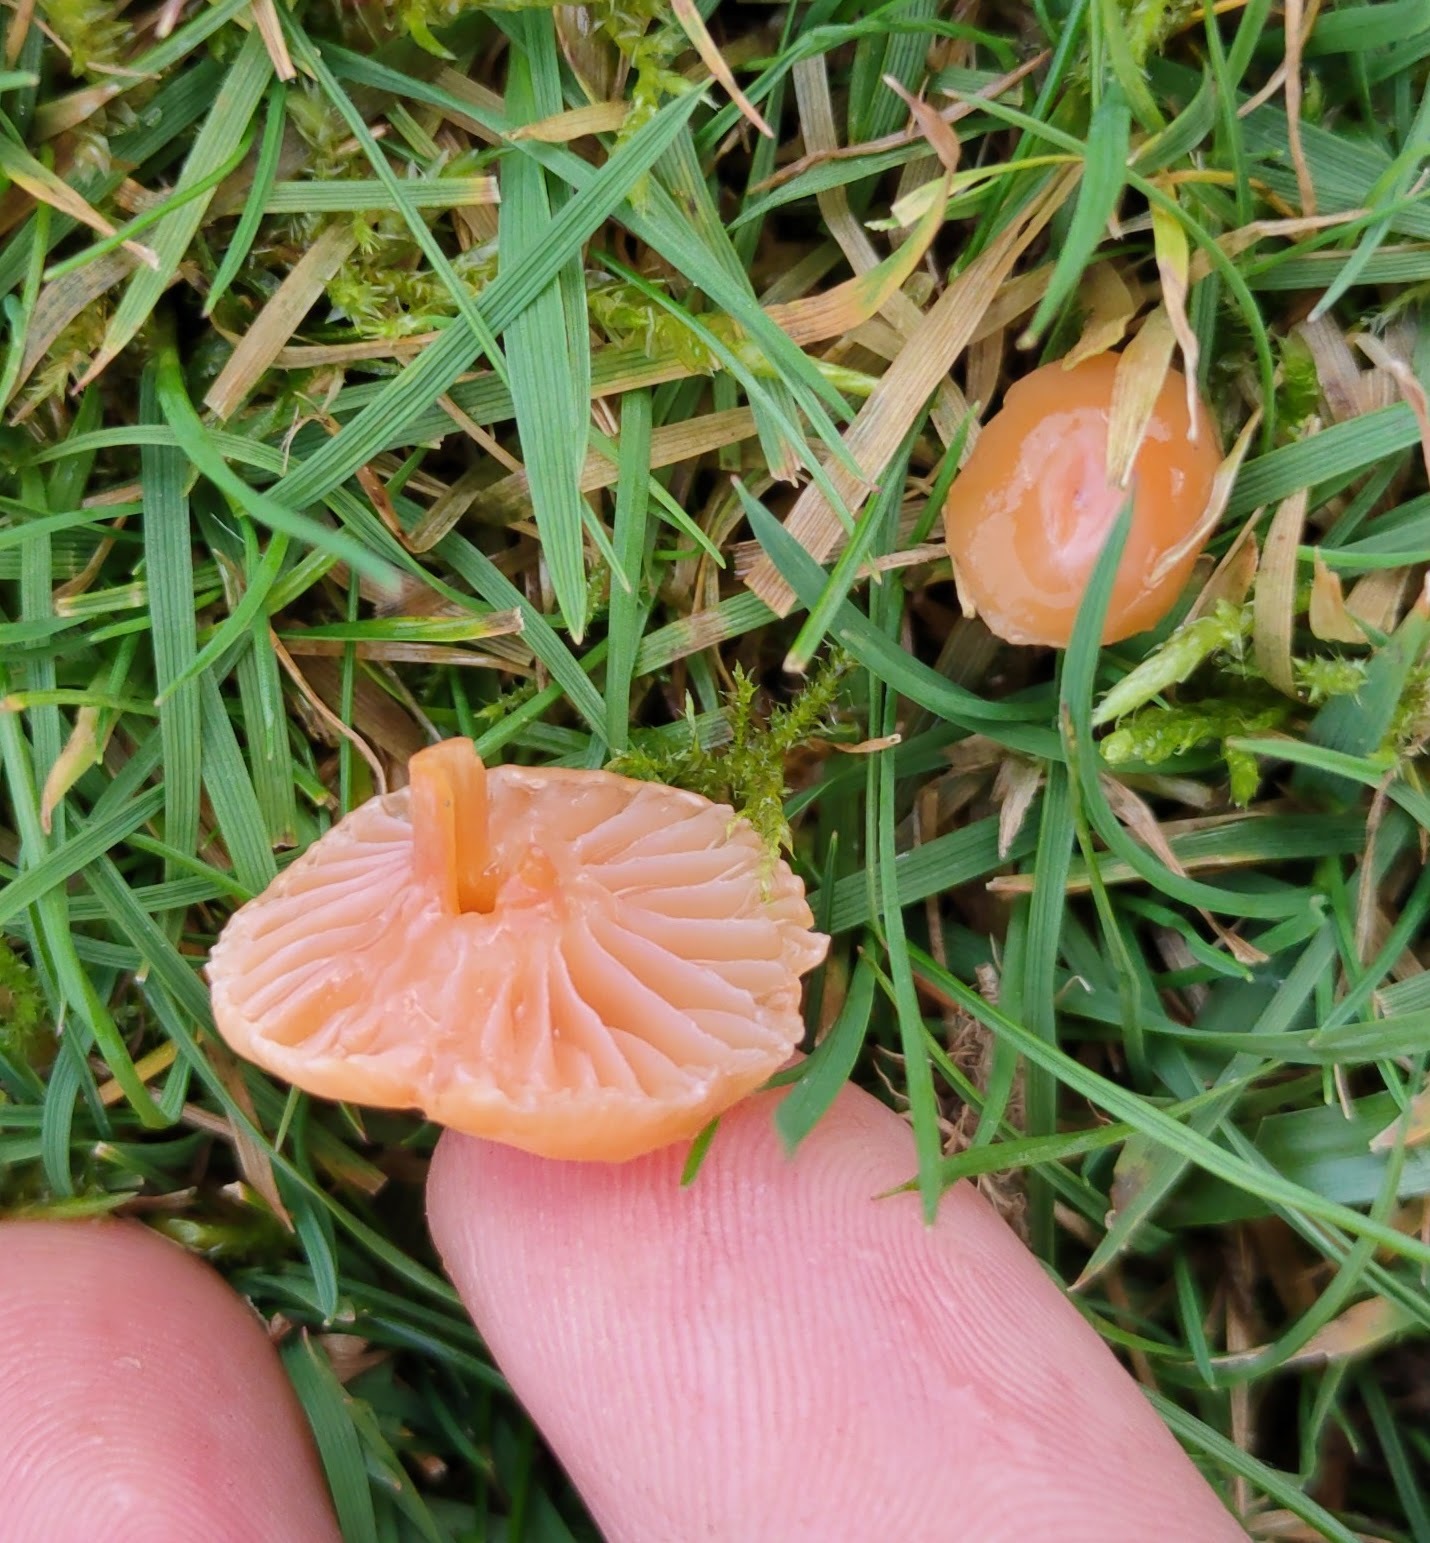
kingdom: Fungi
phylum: Basidiomycota
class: Agaricomycetes
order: Agaricales
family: Hygrophoraceae
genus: Gliophorus
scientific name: Gliophorus laetus
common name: Heath waxcap
